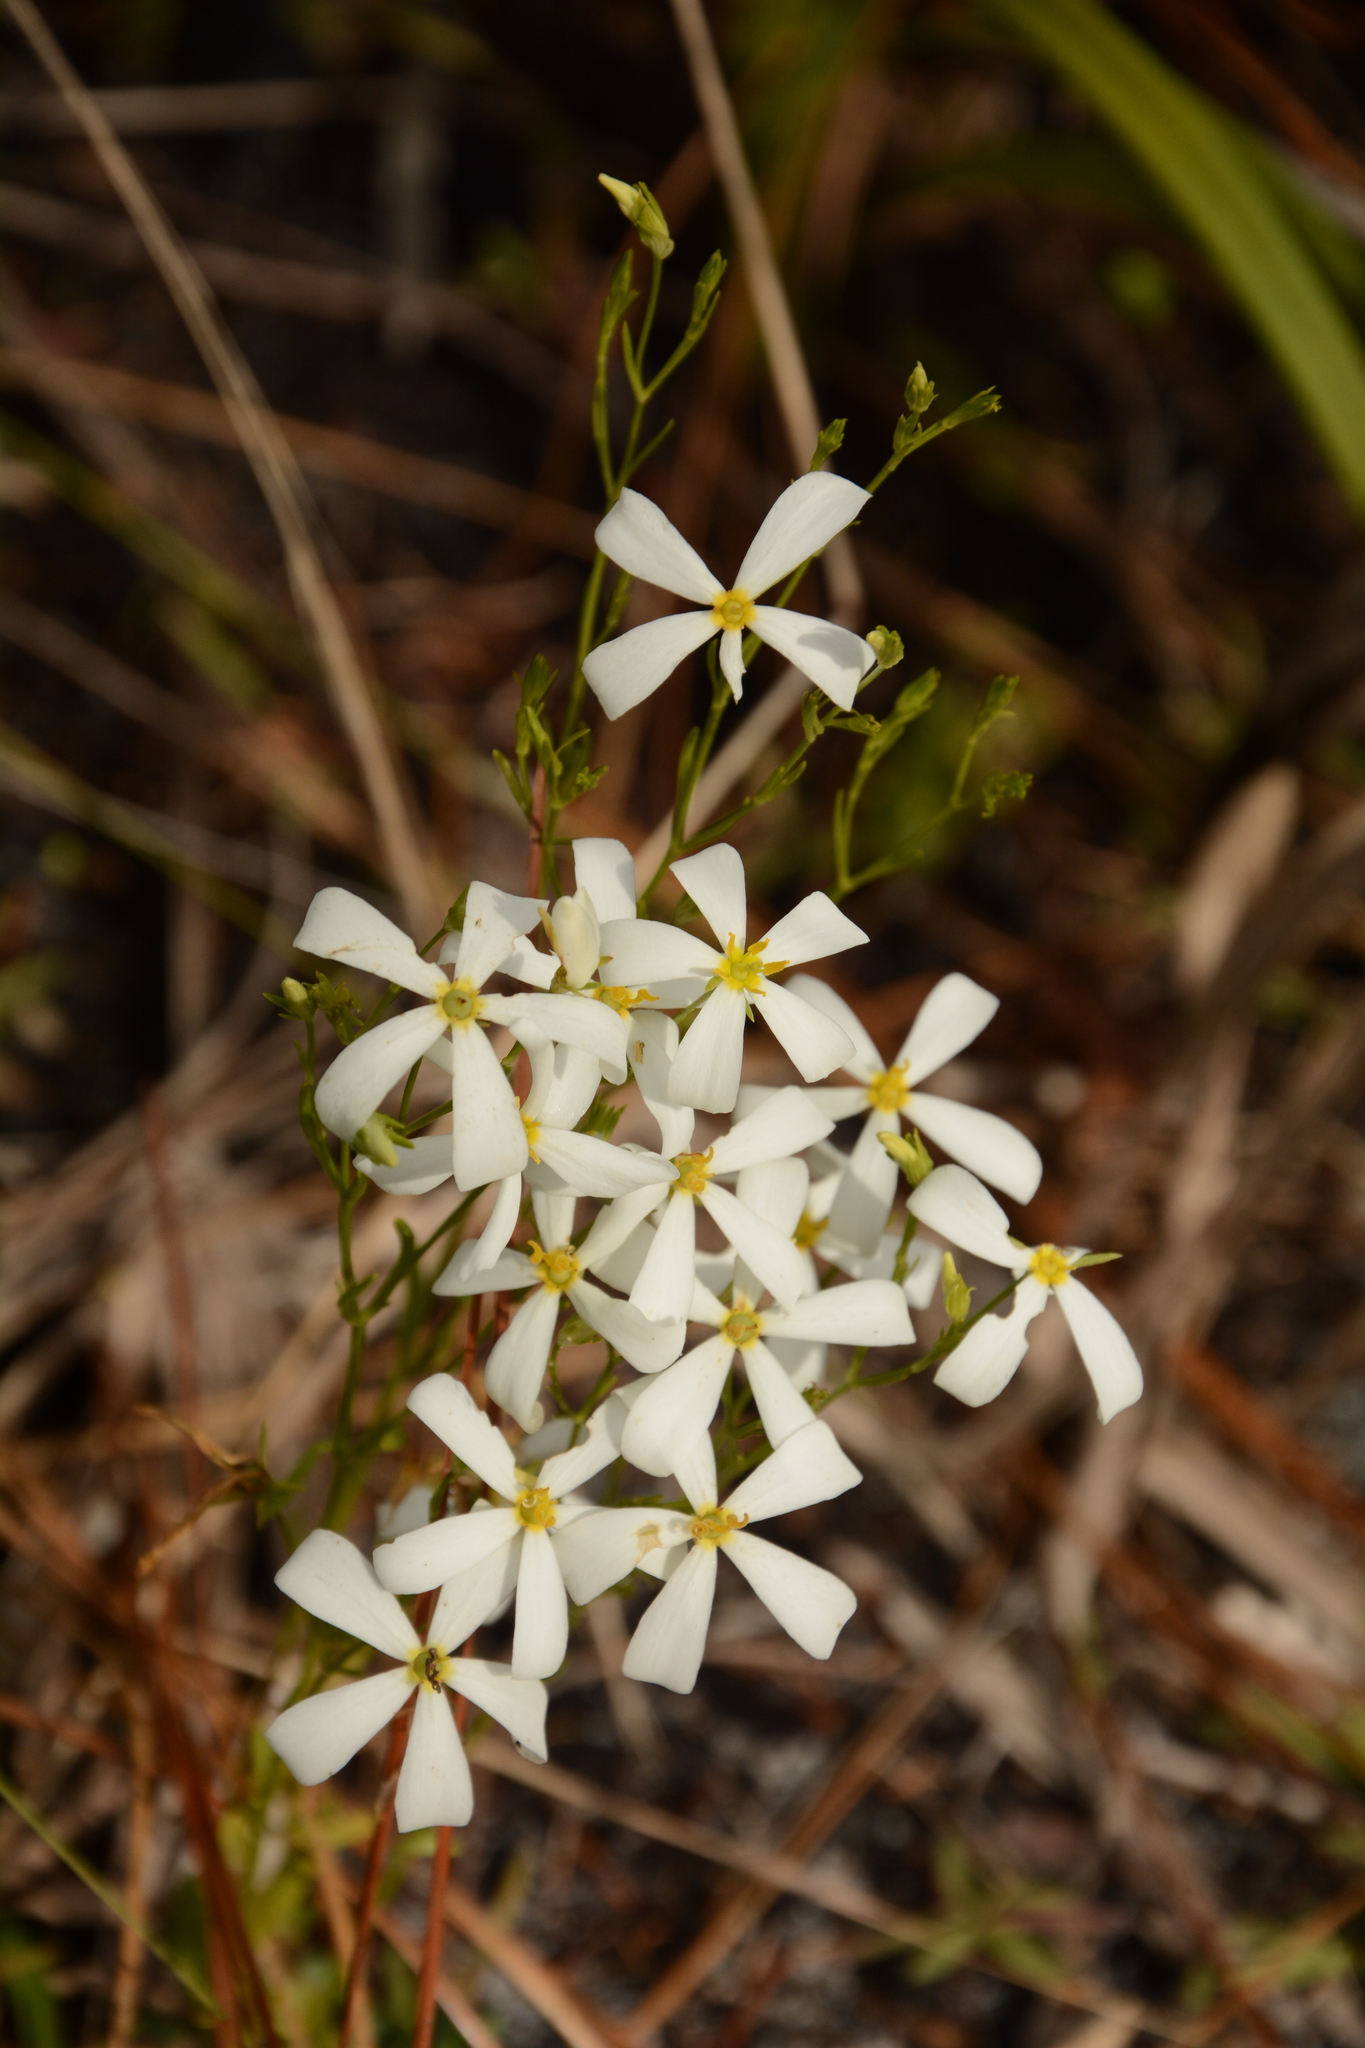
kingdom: Plantae
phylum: Tracheophyta
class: Magnoliopsida
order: Gentianales
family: Gentianaceae
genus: Sabatia
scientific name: Sabatia brevifolia
